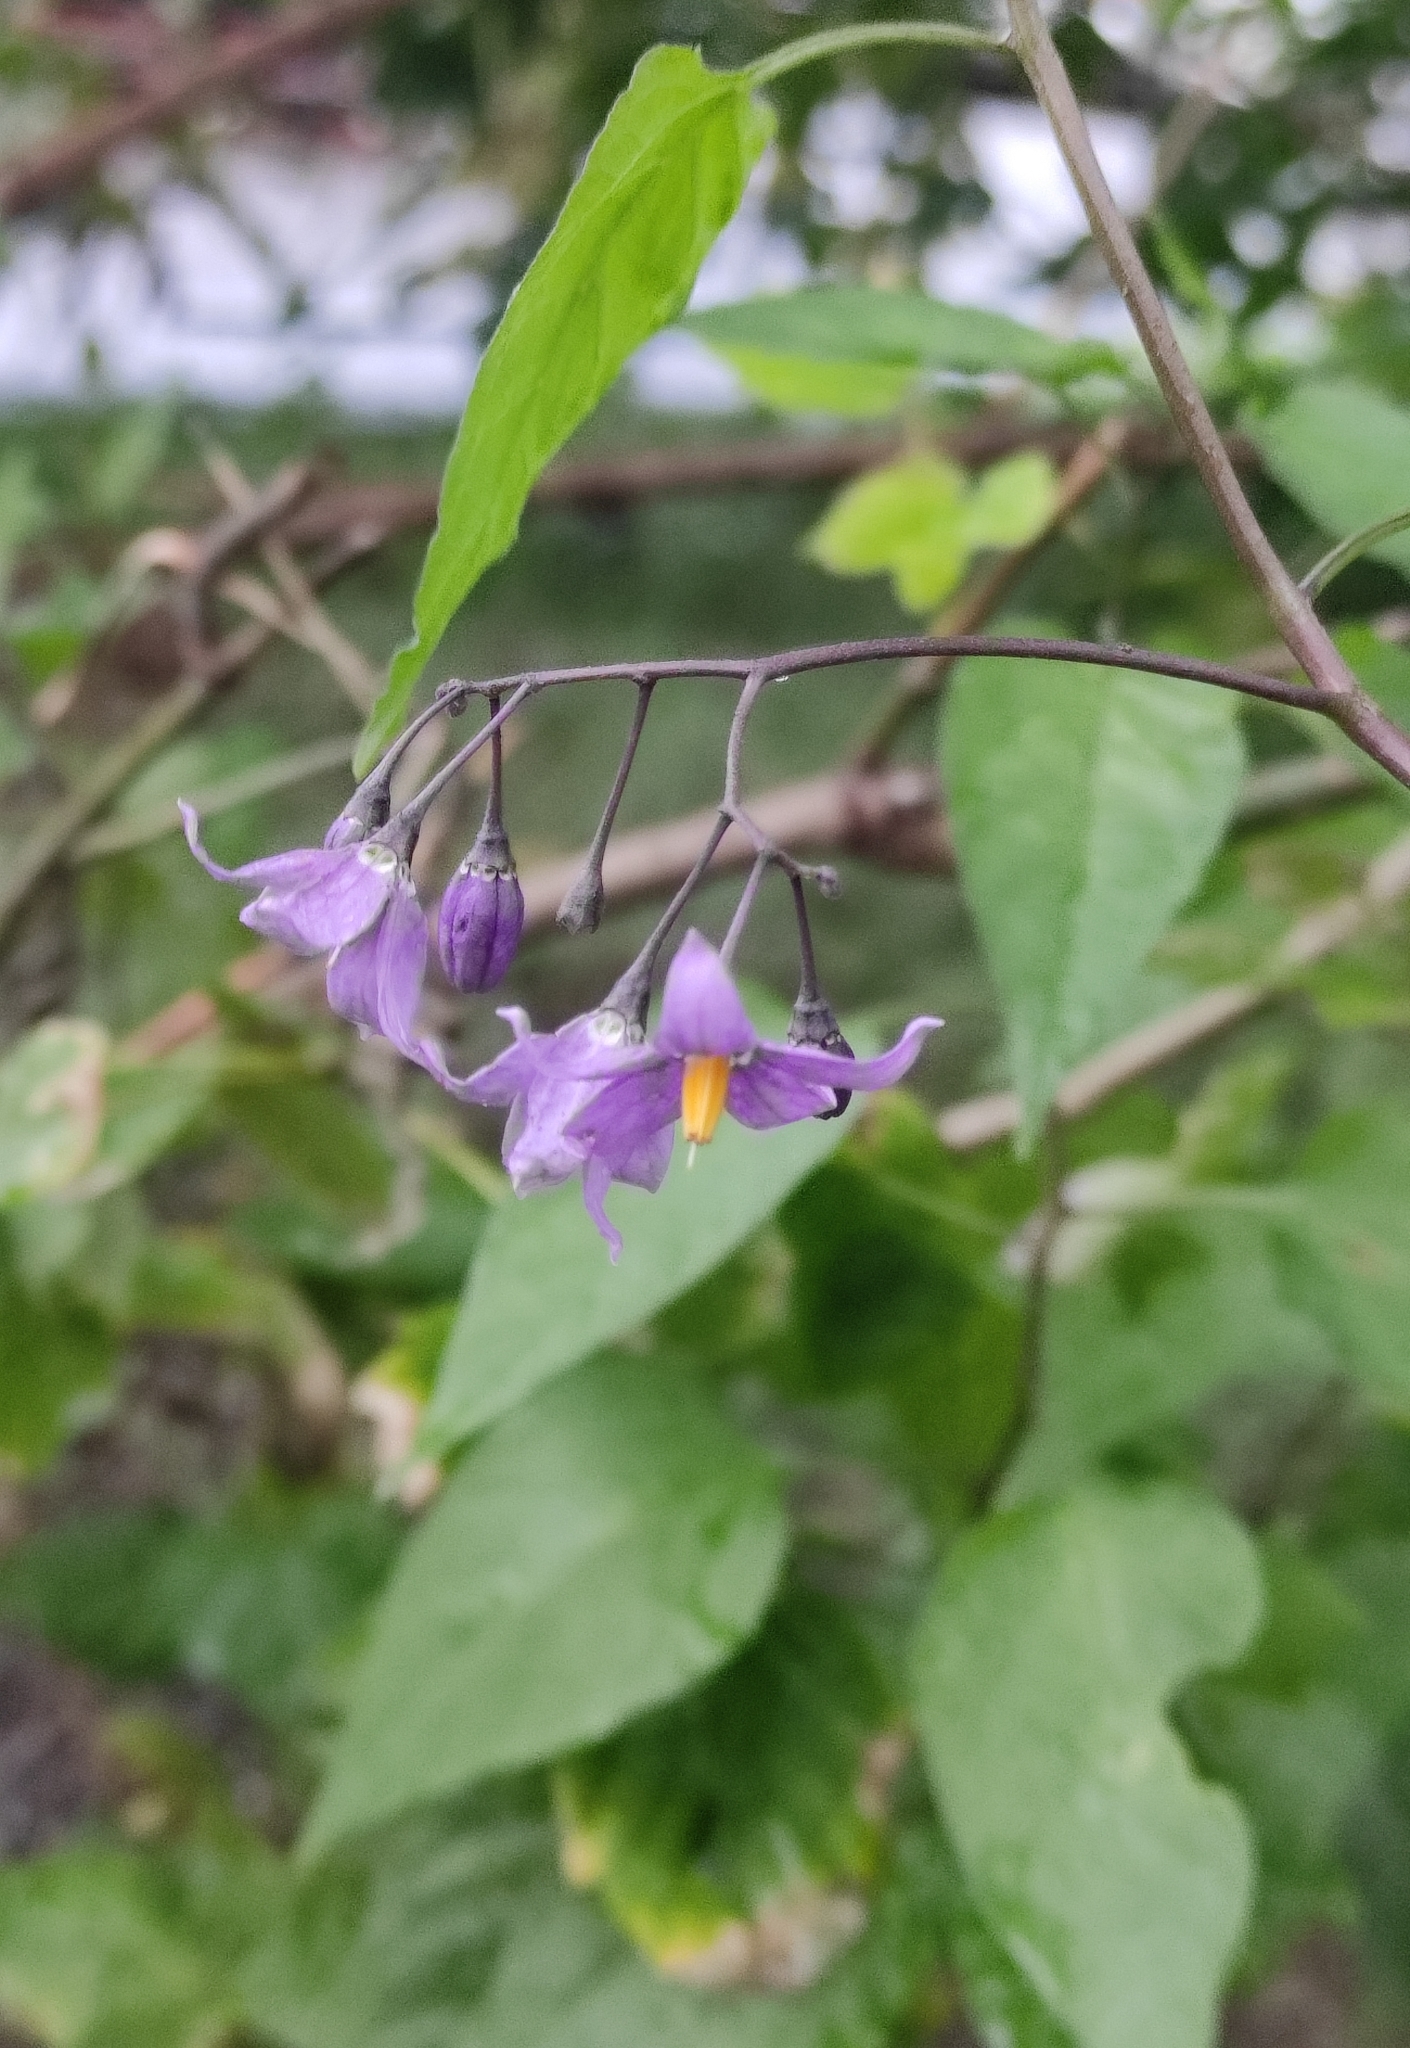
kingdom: Plantae
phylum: Tracheophyta
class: Magnoliopsida
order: Solanales
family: Solanaceae
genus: Solanum
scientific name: Solanum dulcamara
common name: Climbing nightshade
